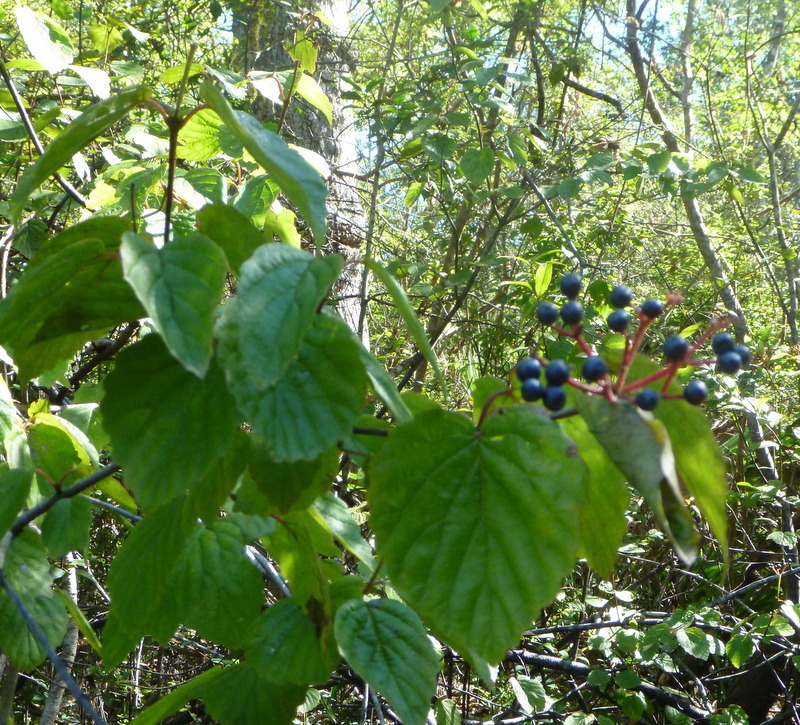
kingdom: Plantae
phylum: Tracheophyta
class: Magnoliopsida
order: Dipsacales
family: Viburnaceae
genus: Viburnum
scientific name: Viburnum scabrellum
